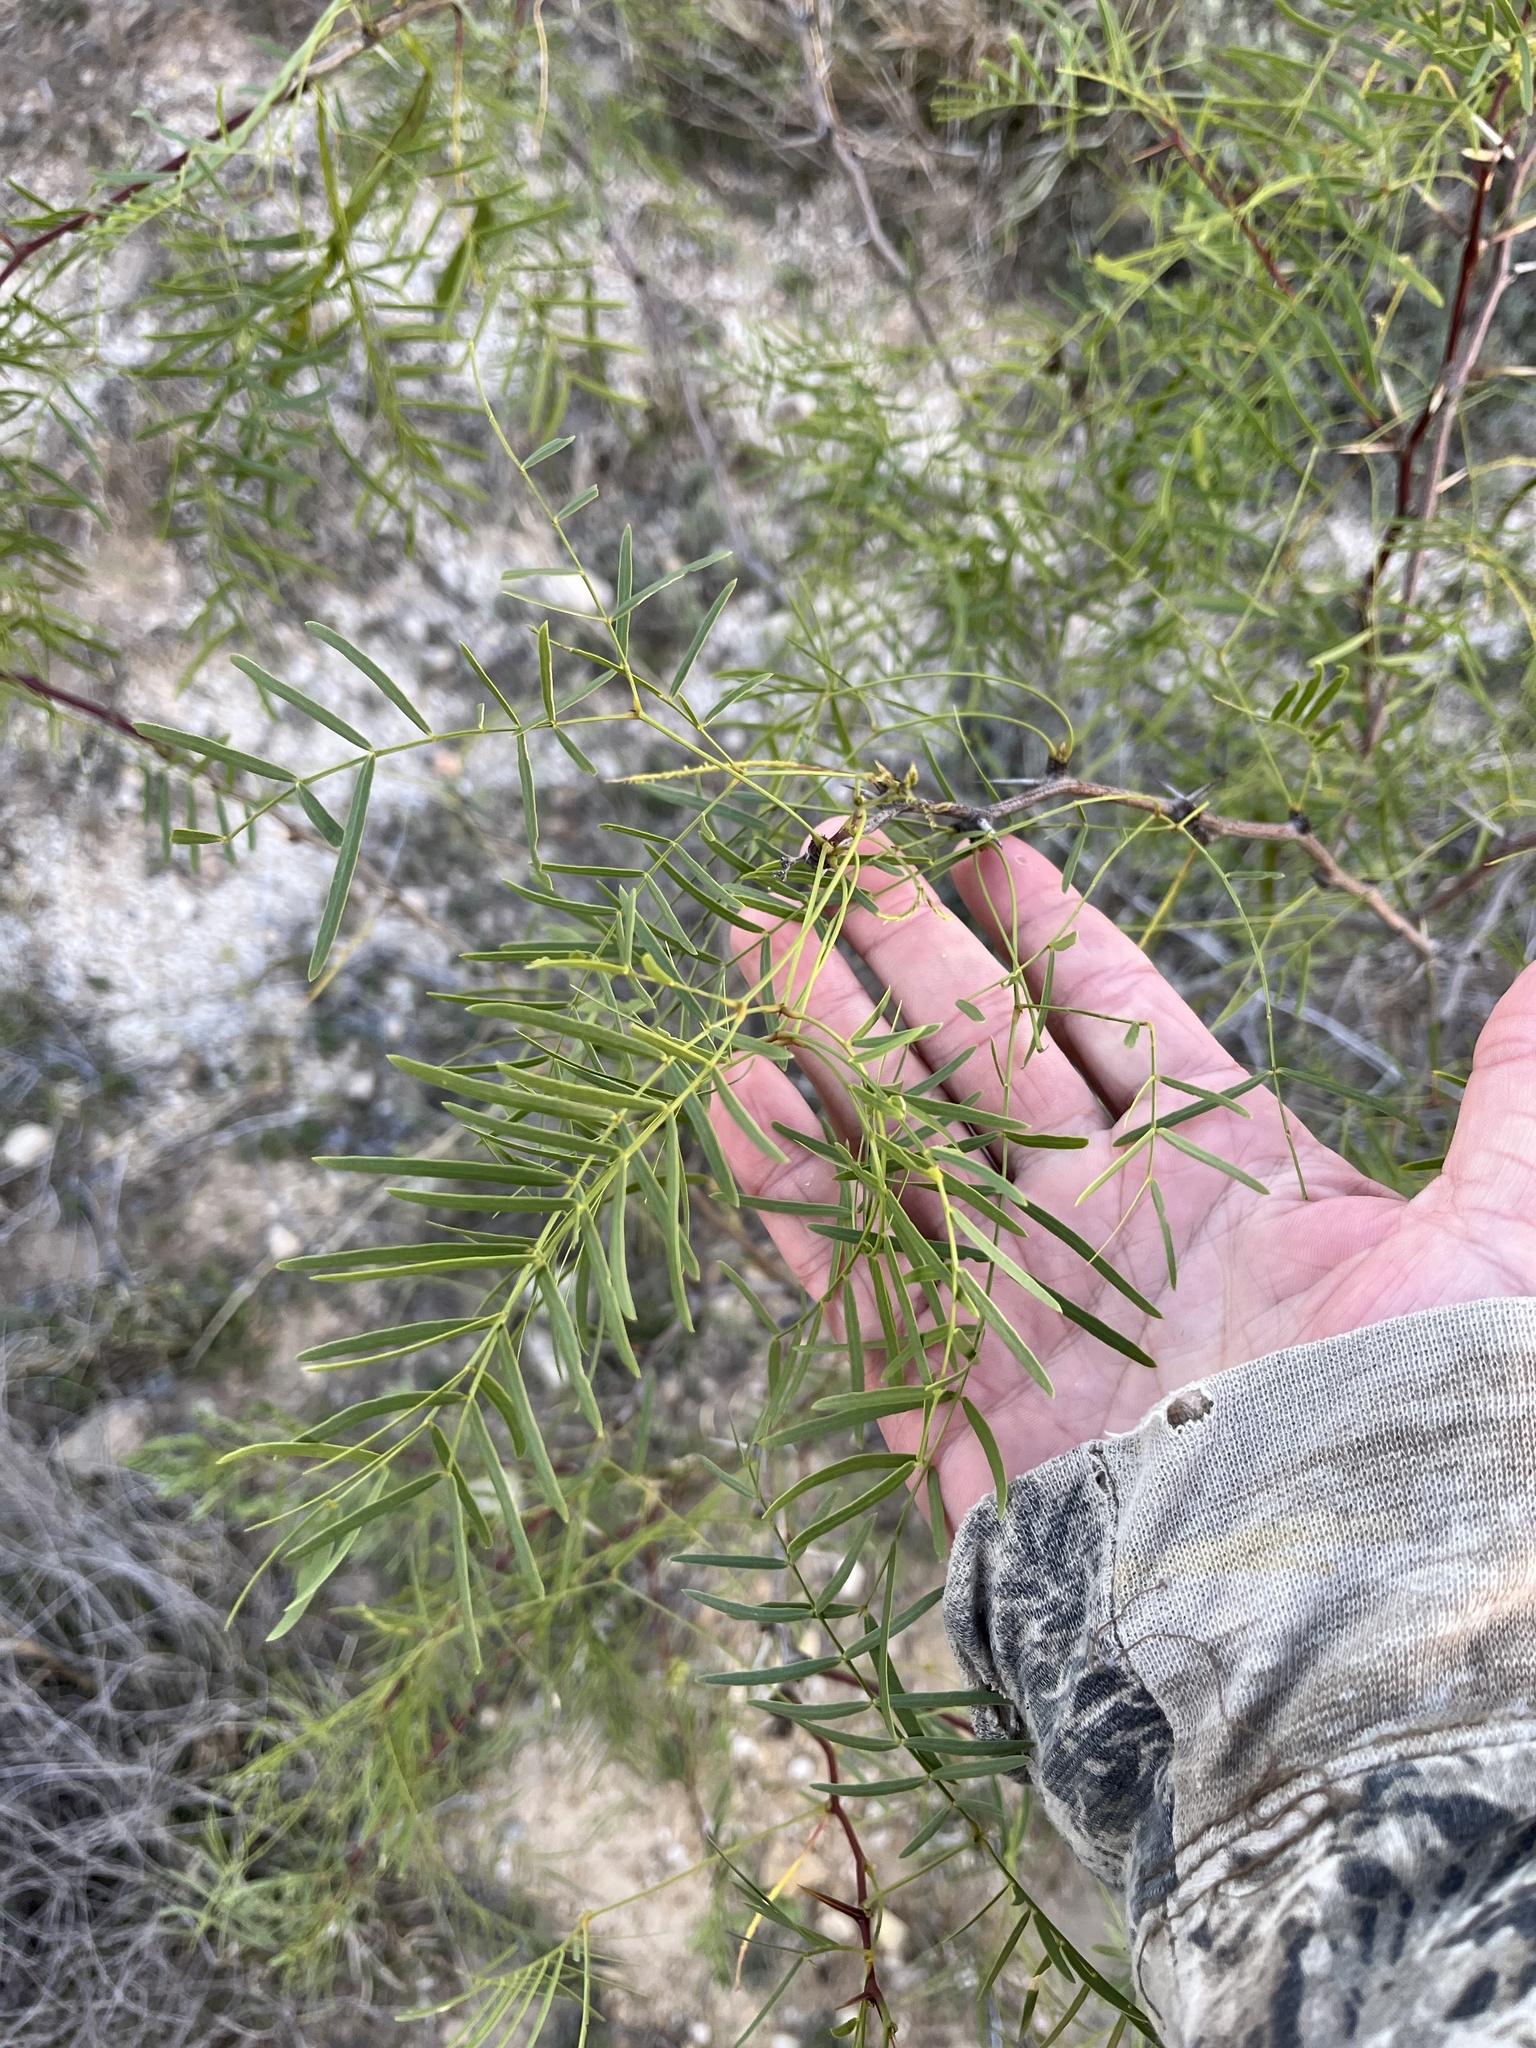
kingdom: Plantae
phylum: Tracheophyta
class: Magnoliopsida
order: Fabales
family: Fabaceae
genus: Prosopis
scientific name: Prosopis glandulosa
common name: Honey mesquite
